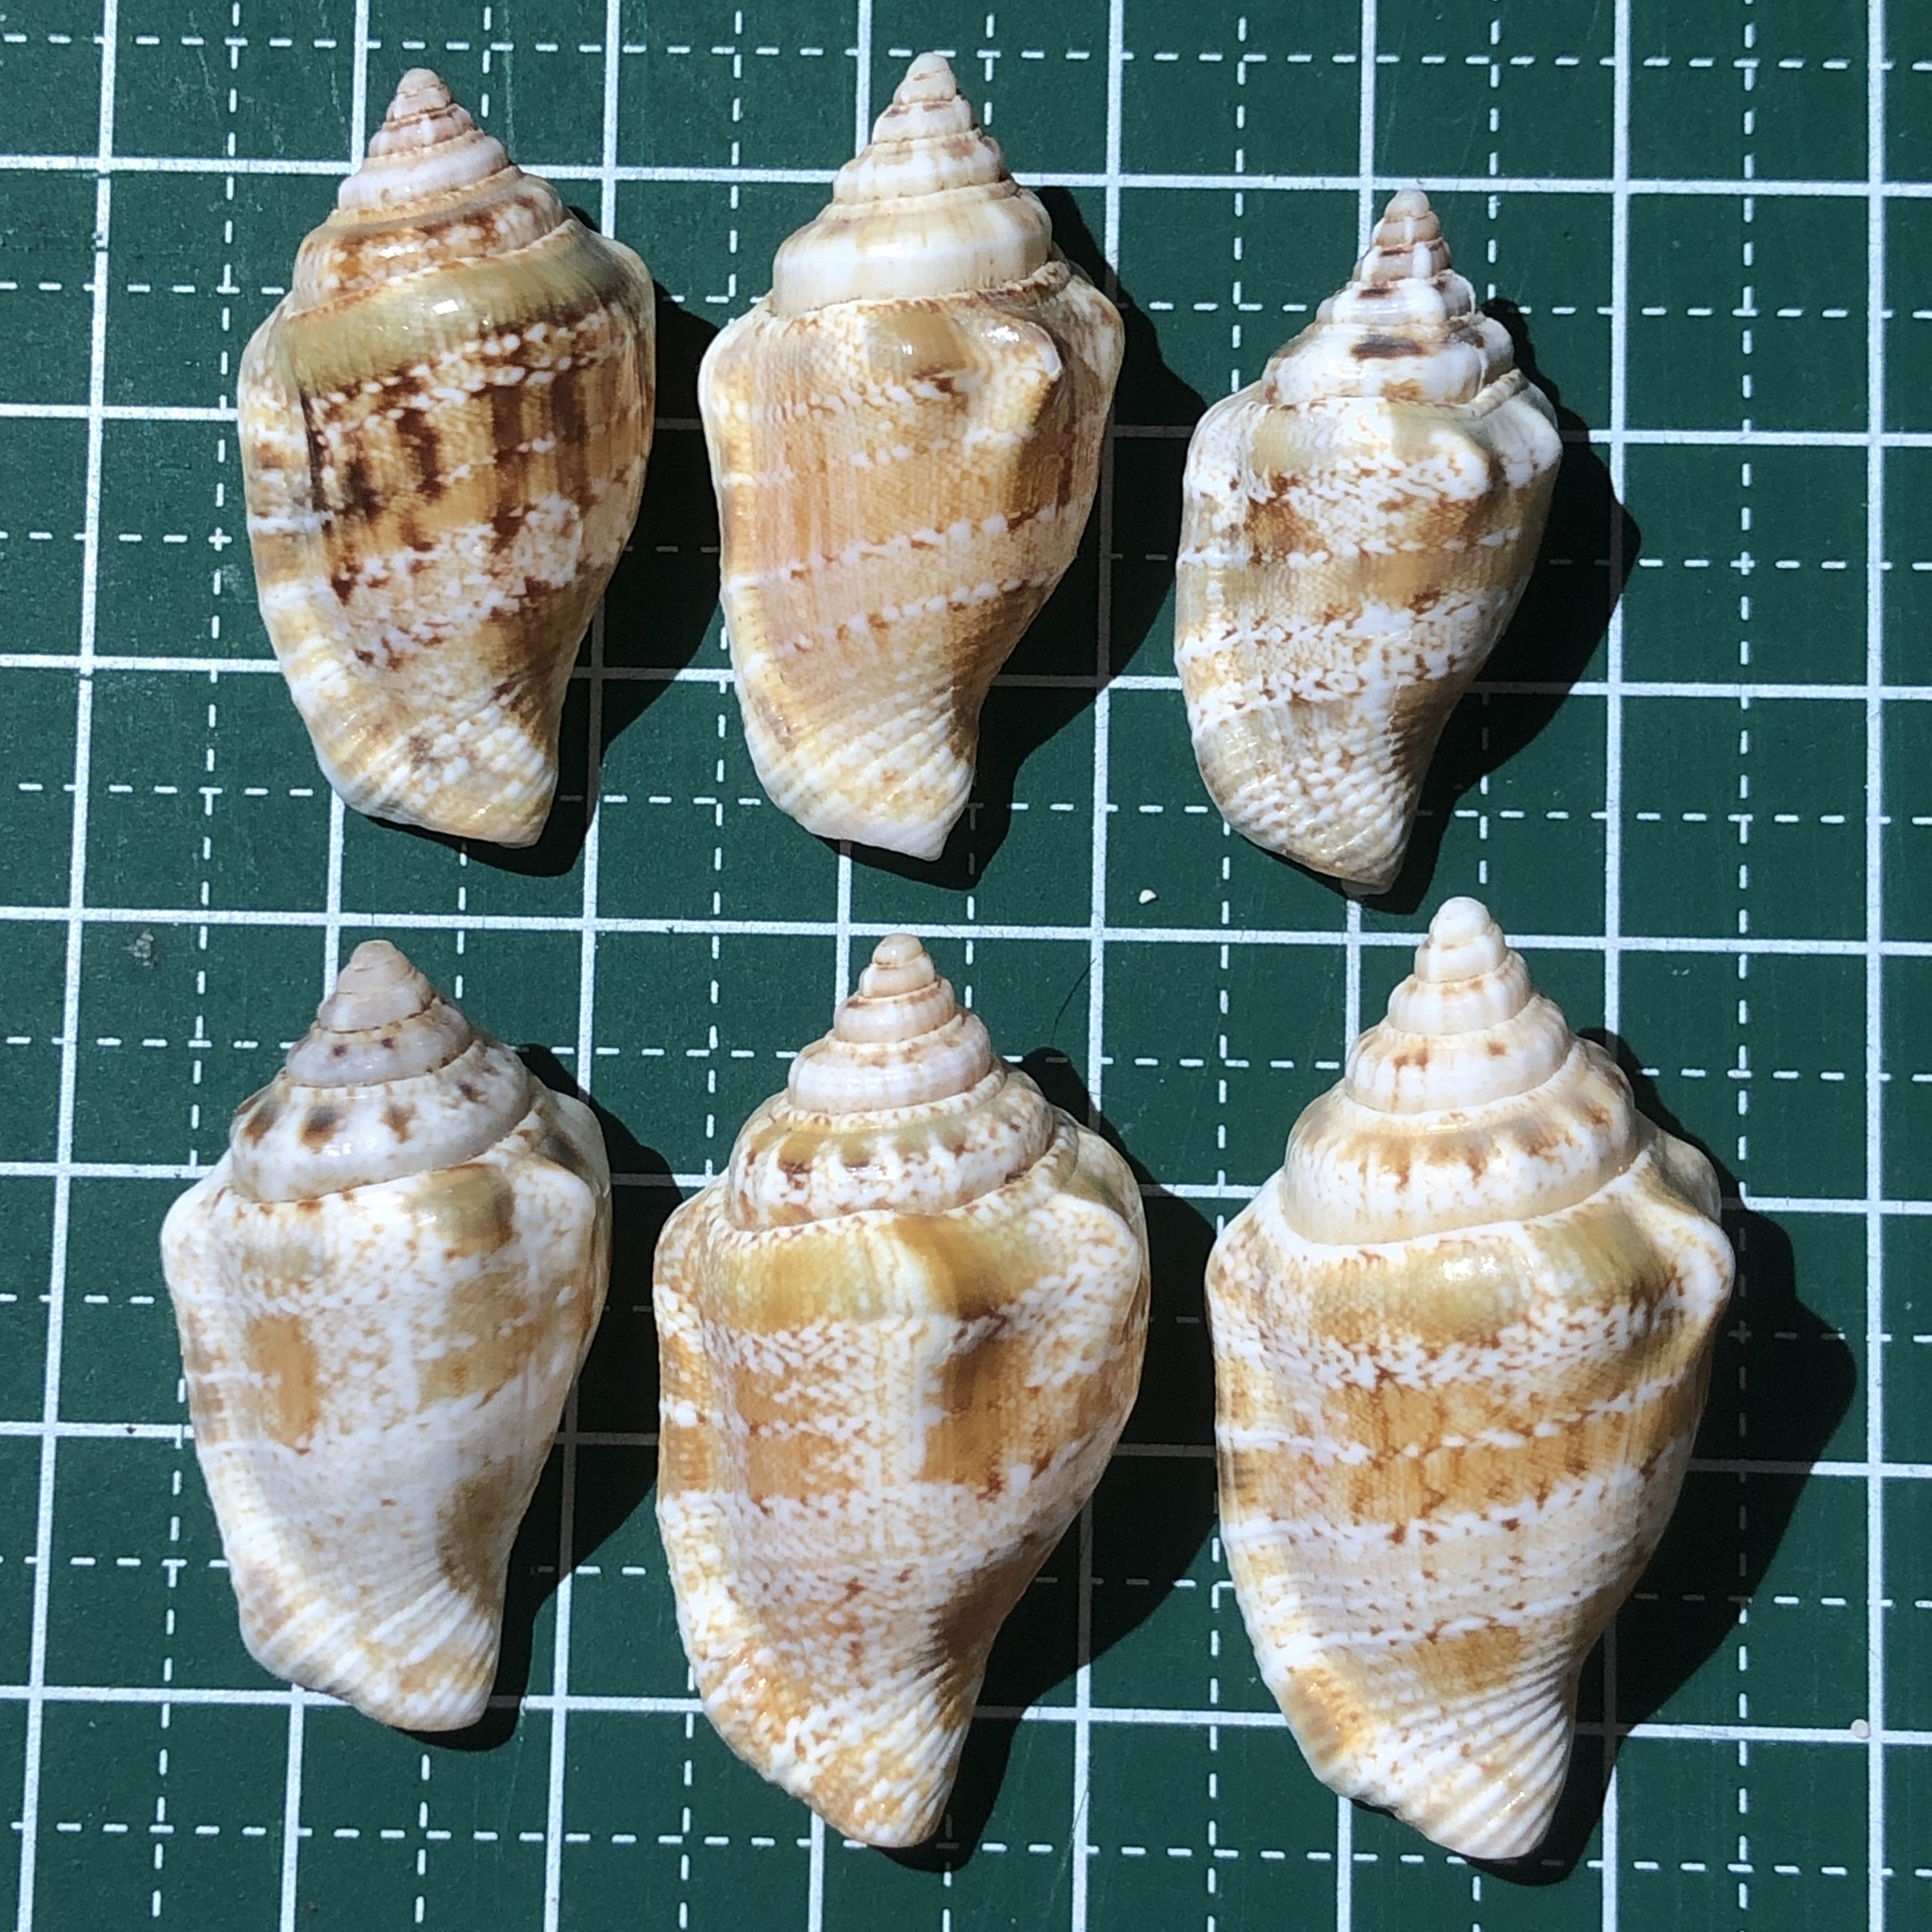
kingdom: Animalia
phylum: Mollusca
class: Gastropoda
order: Littorinimorpha
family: Strombidae
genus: Canarium
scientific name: Canarium mutabile
